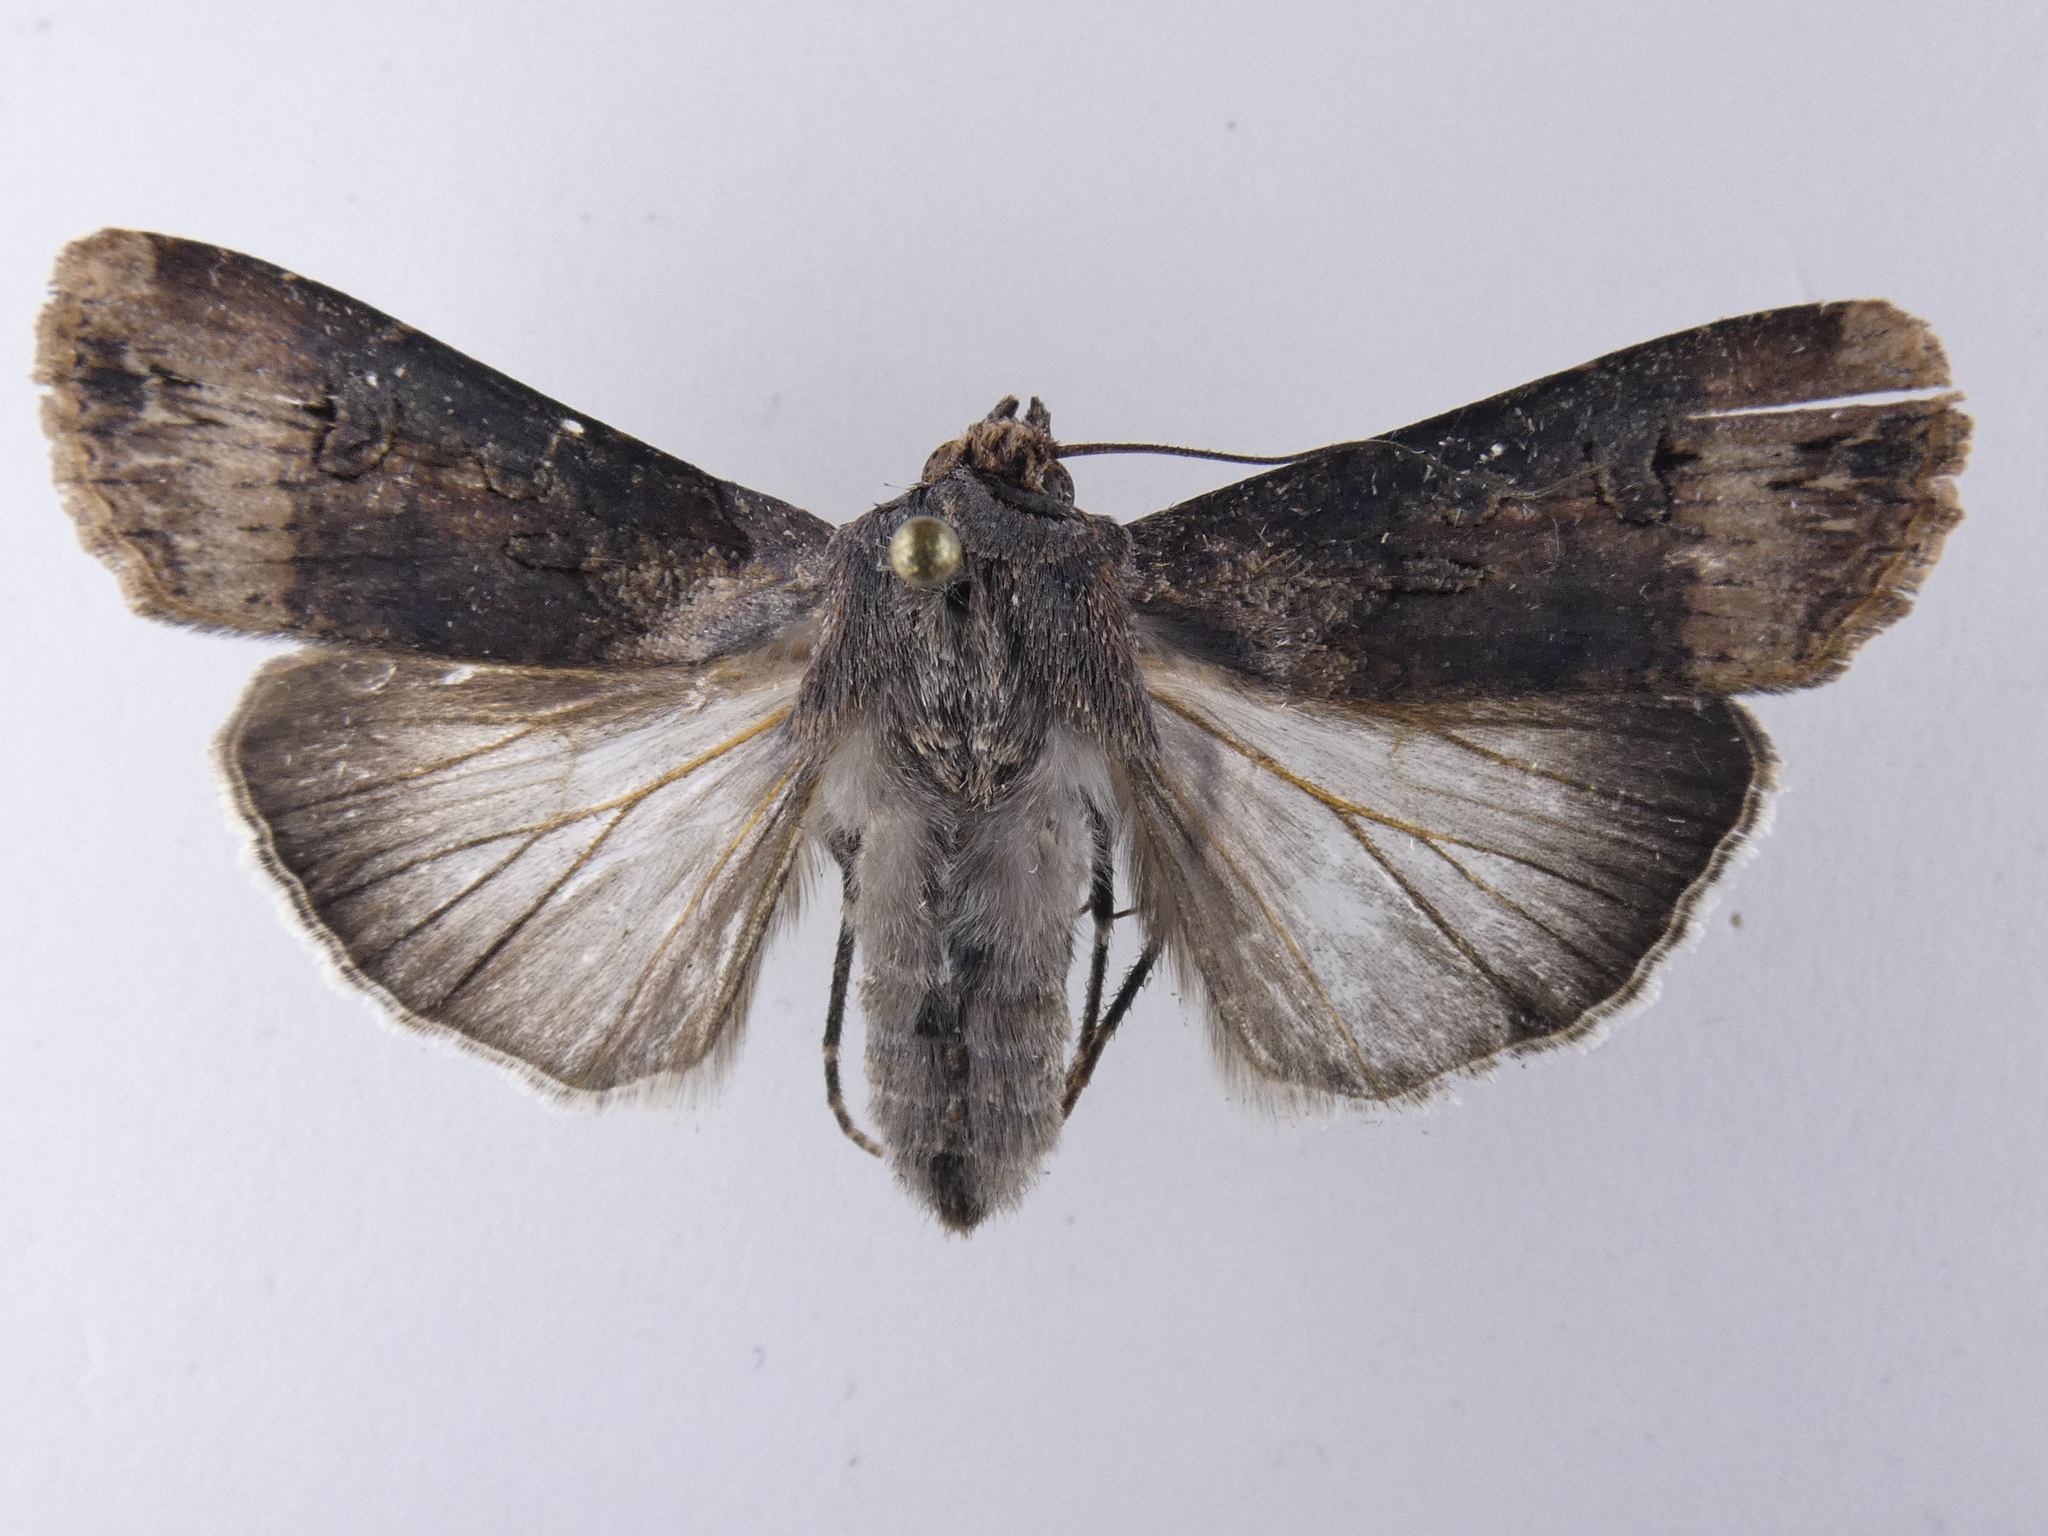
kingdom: Animalia
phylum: Arthropoda
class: Insecta
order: Lepidoptera
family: Noctuidae
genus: Agrotis
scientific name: Agrotis ipsilon
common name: Dark sword-grass
